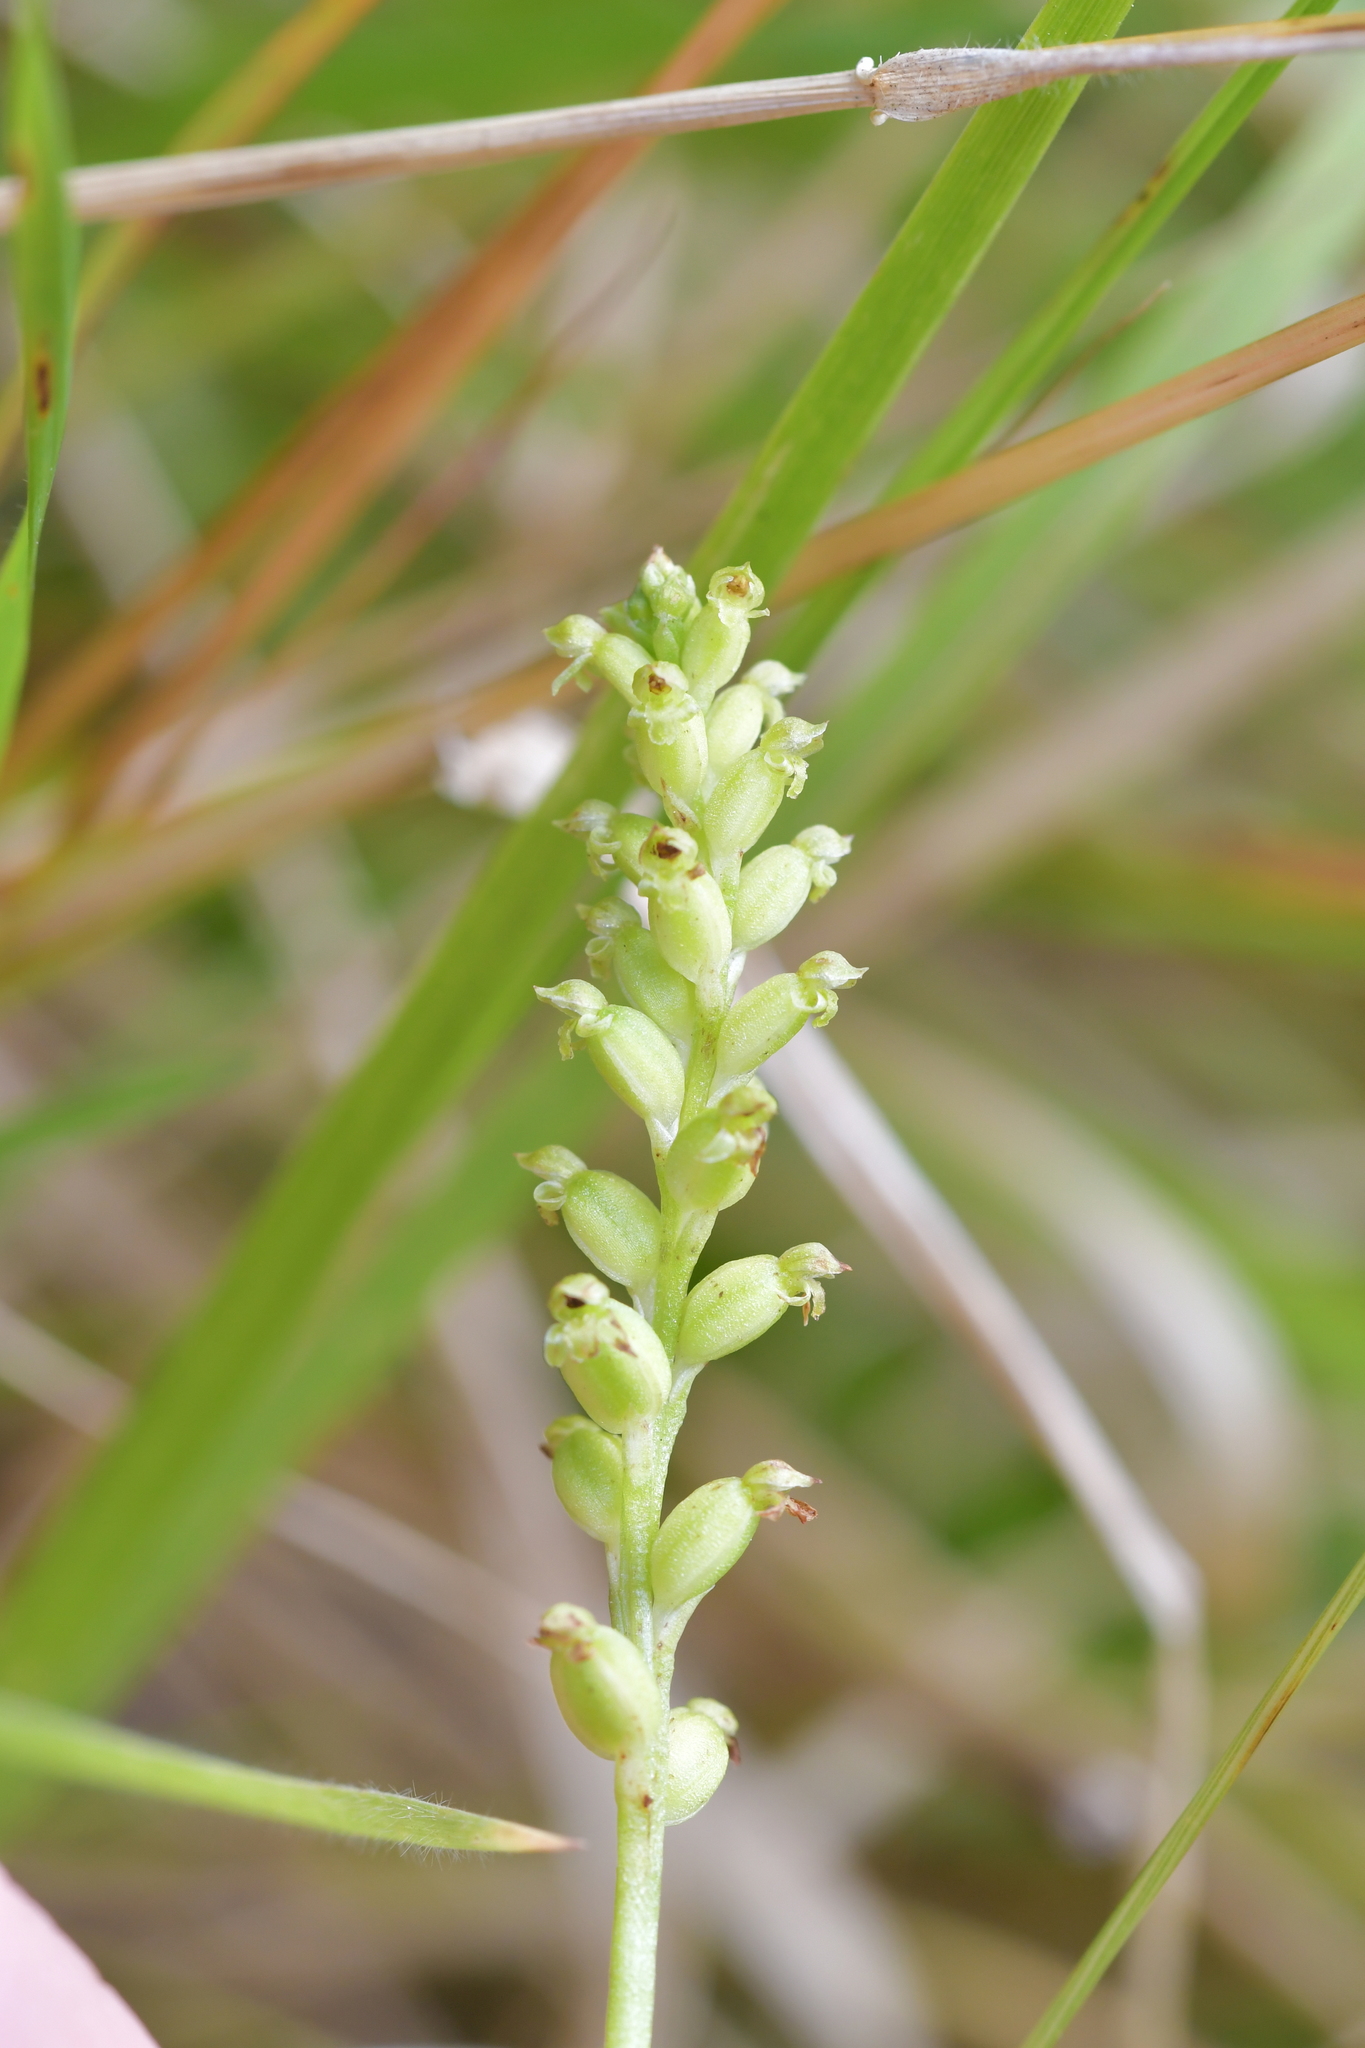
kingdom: Plantae
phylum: Tracheophyta
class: Liliopsida
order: Asparagales
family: Orchidaceae
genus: Microtis
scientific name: Microtis unifolia
